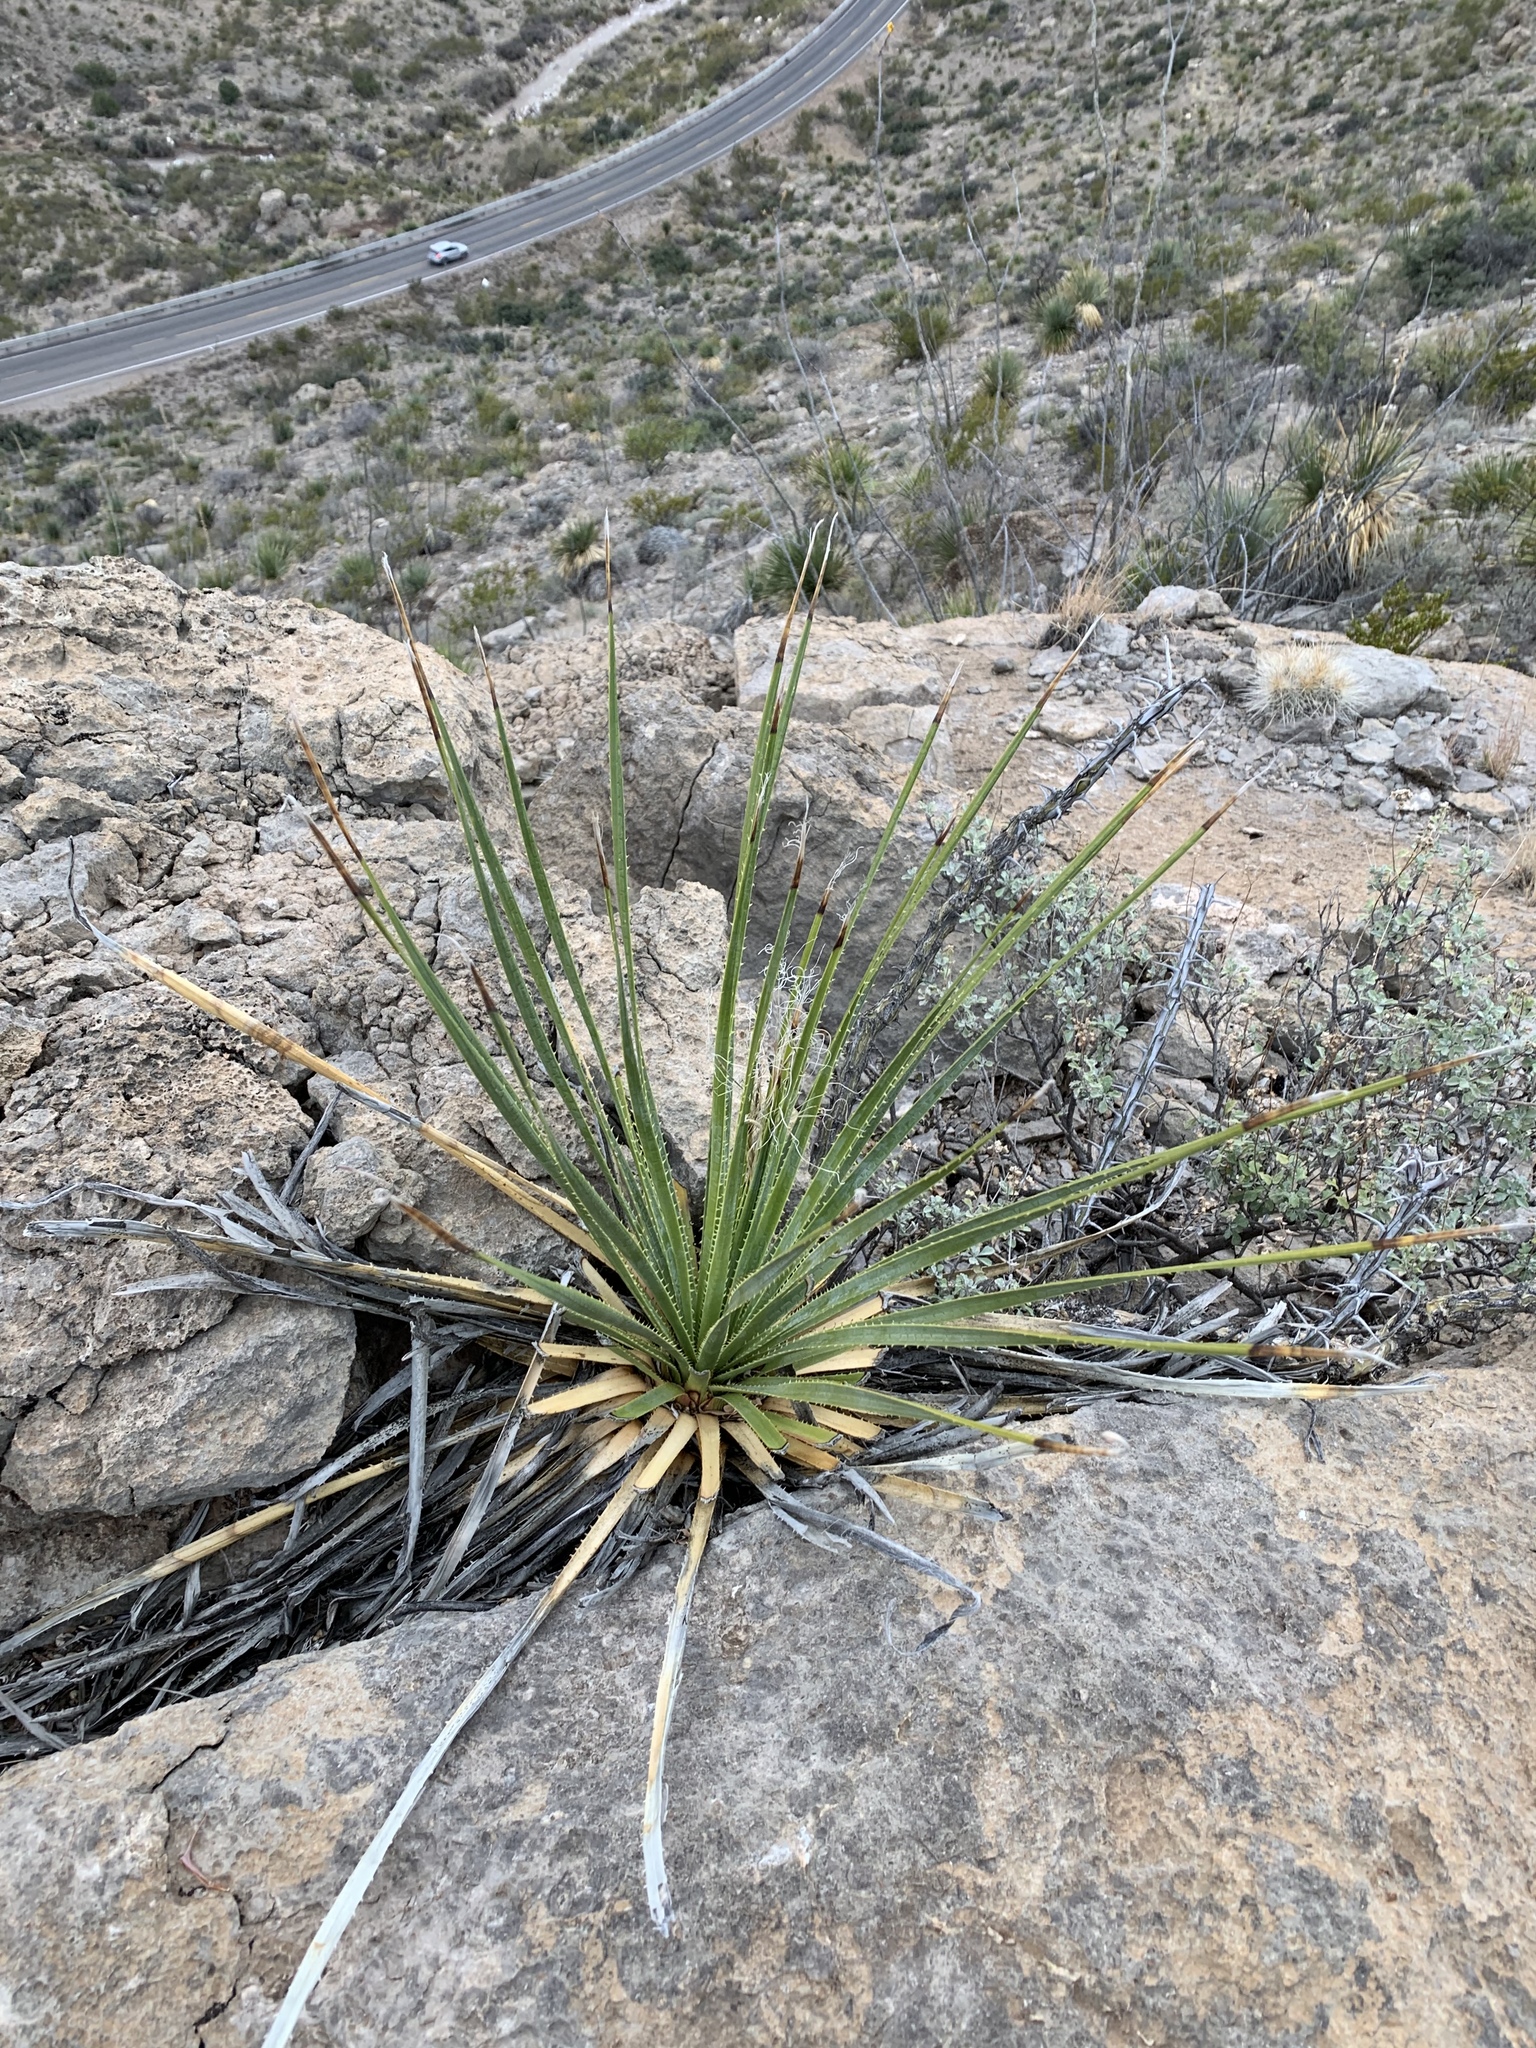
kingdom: Plantae
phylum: Tracheophyta
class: Liliopsida
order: Asparagales
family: Asparagaceae
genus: Dasylirion
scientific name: Dasylirion wheeleri
